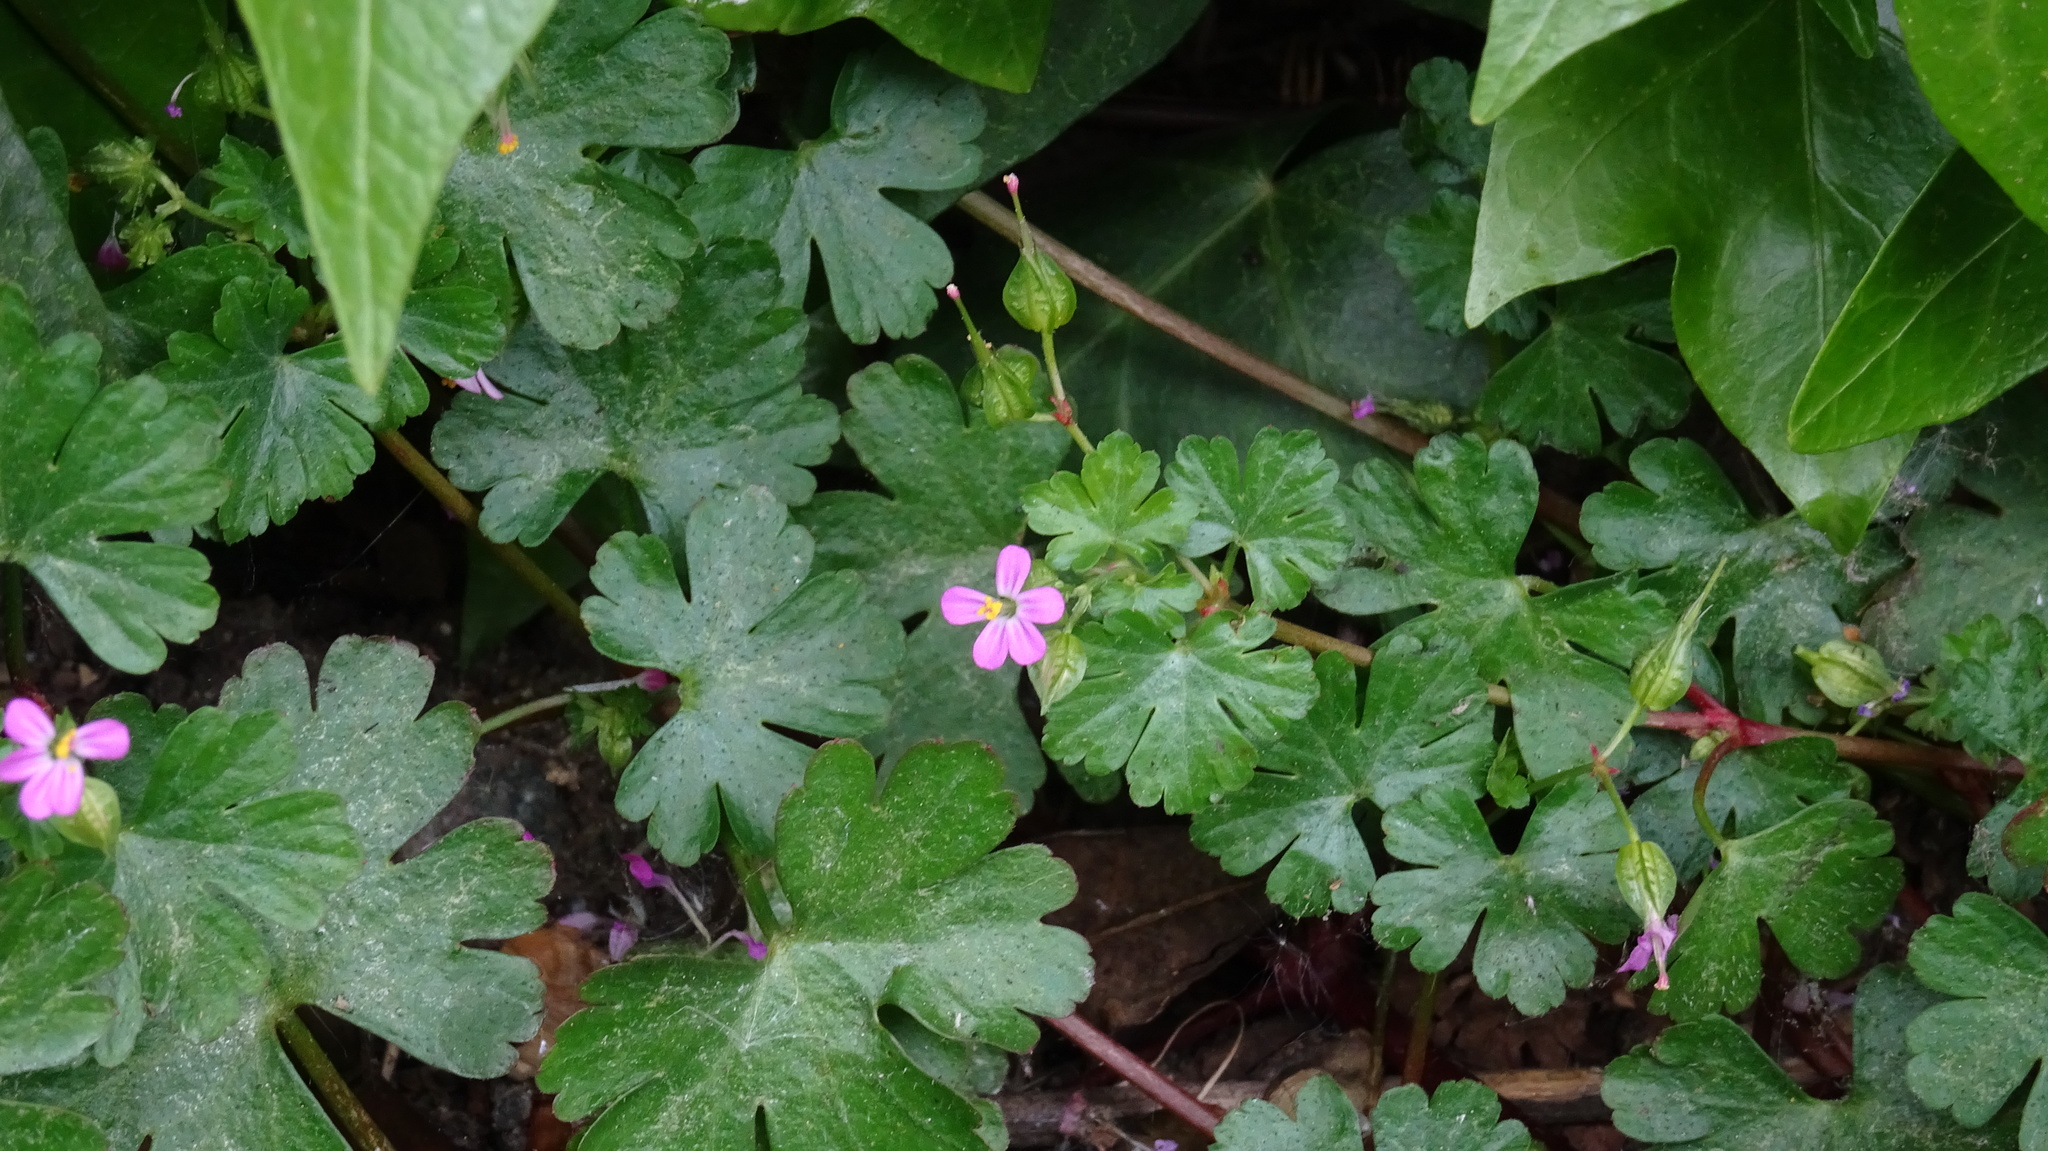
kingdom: Plantae
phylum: Tracheophyta
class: Magnoliopsida
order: Geraniales
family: Geraniaceae
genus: Geranium
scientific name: Geranium lucidum
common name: Shining crane's-bill
